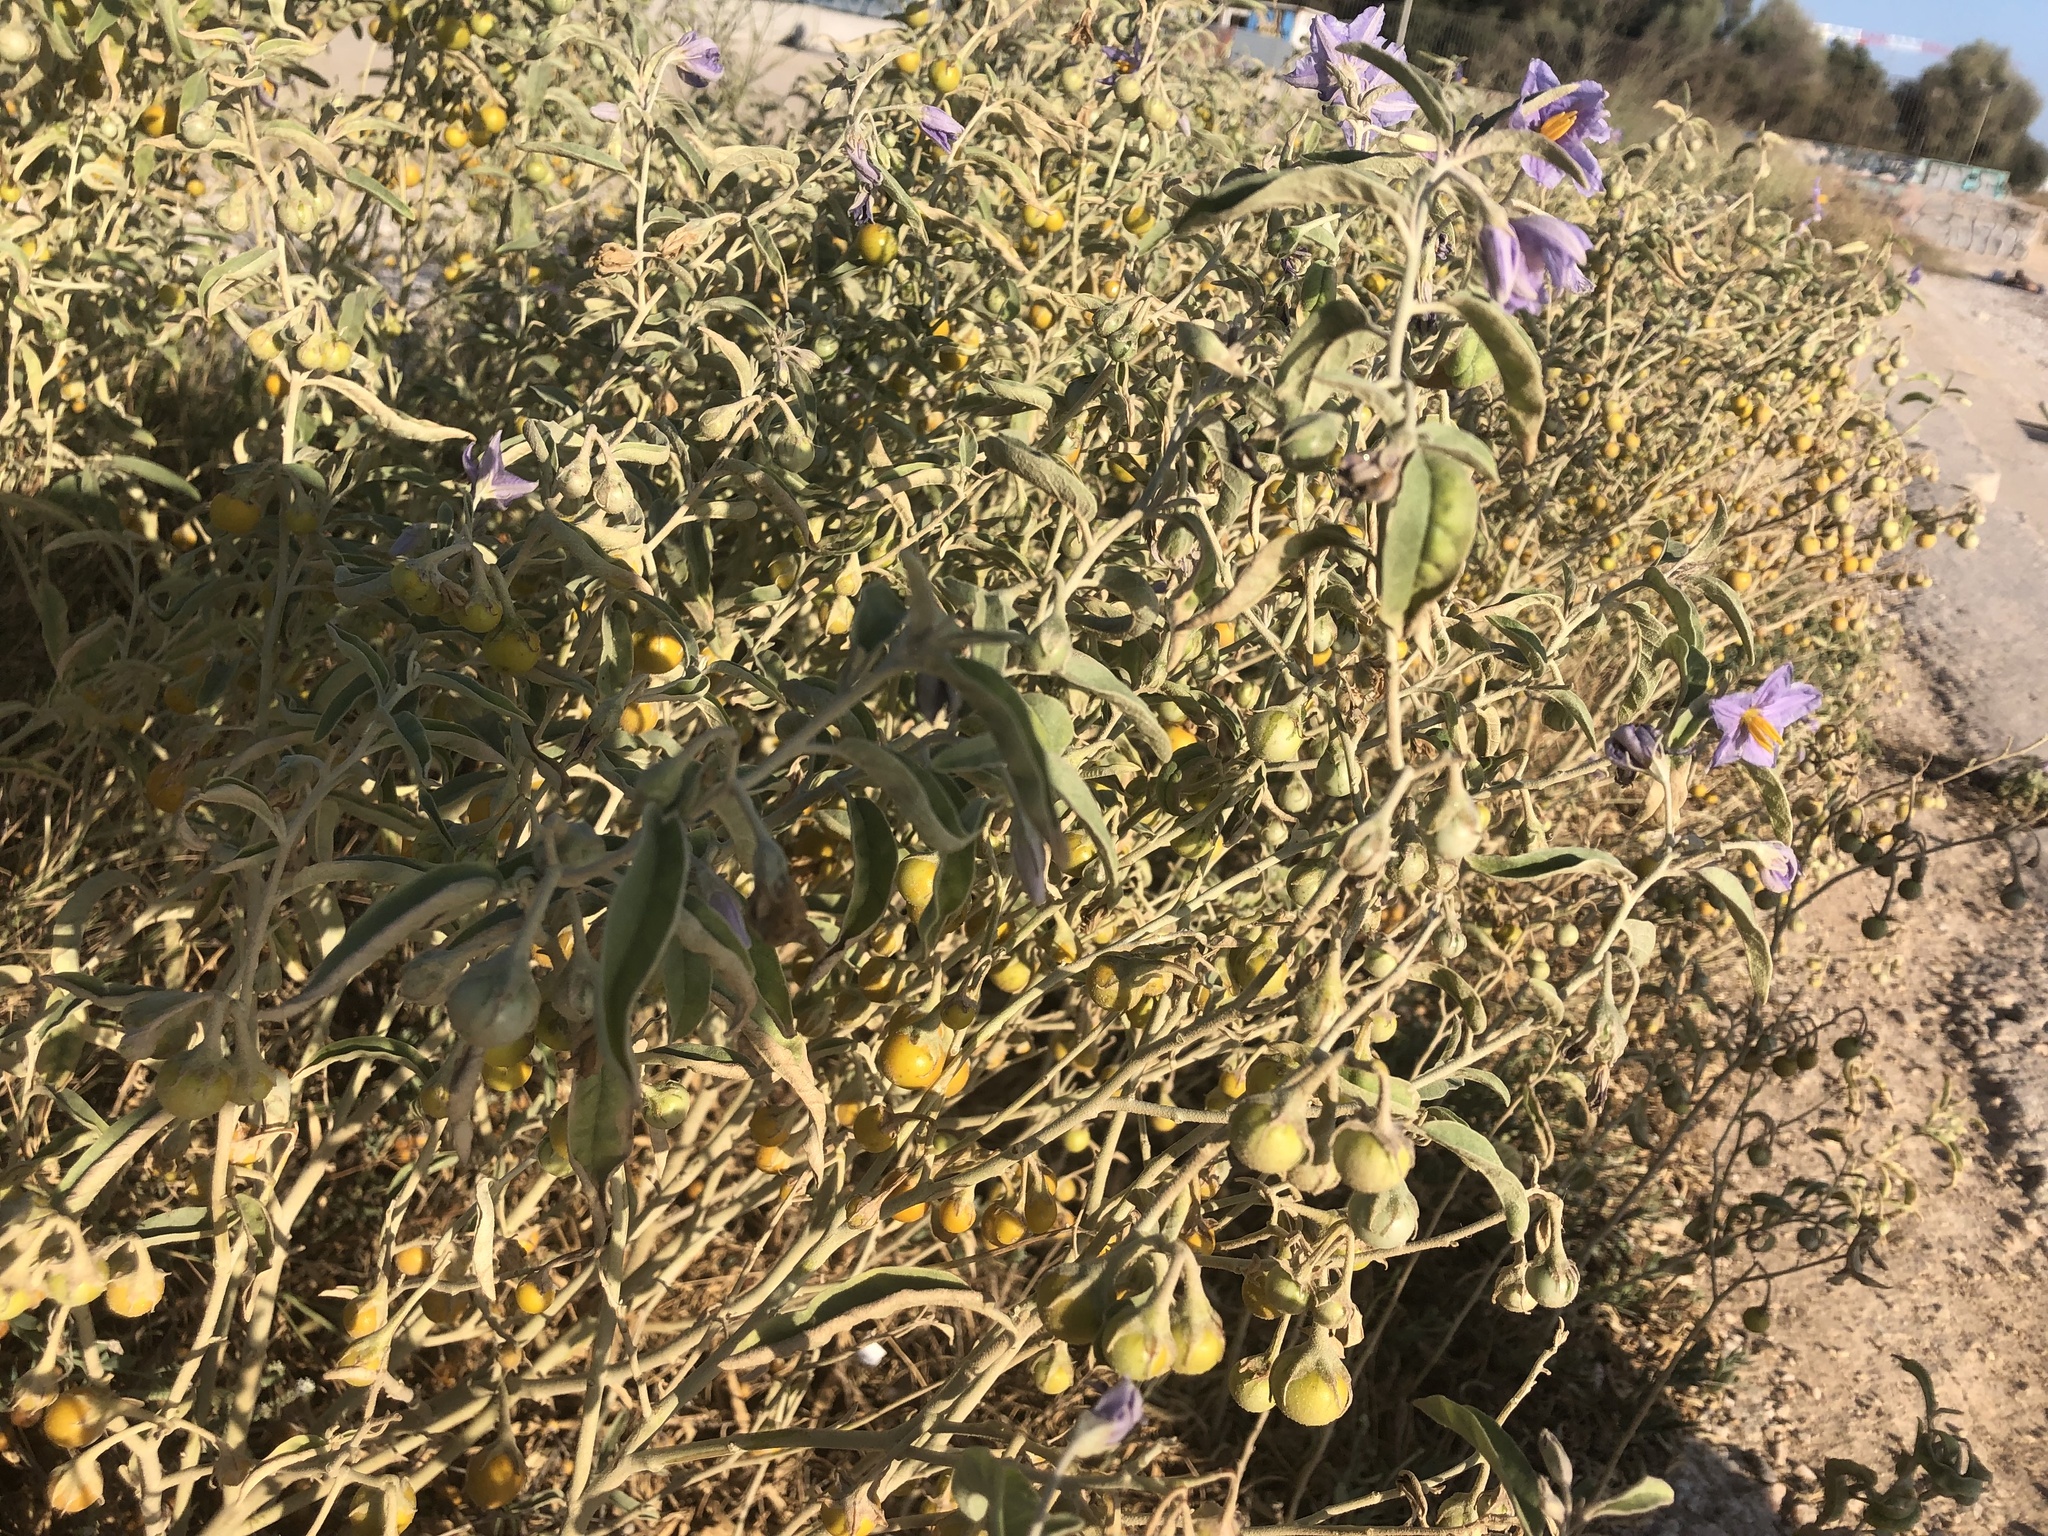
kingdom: Plantae
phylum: Tracheophyta
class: Magnoliopsida
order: Solanales
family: Solanaceae
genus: Solanum
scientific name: Solanum elaeagnifolium
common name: Silverleaf nightshade
